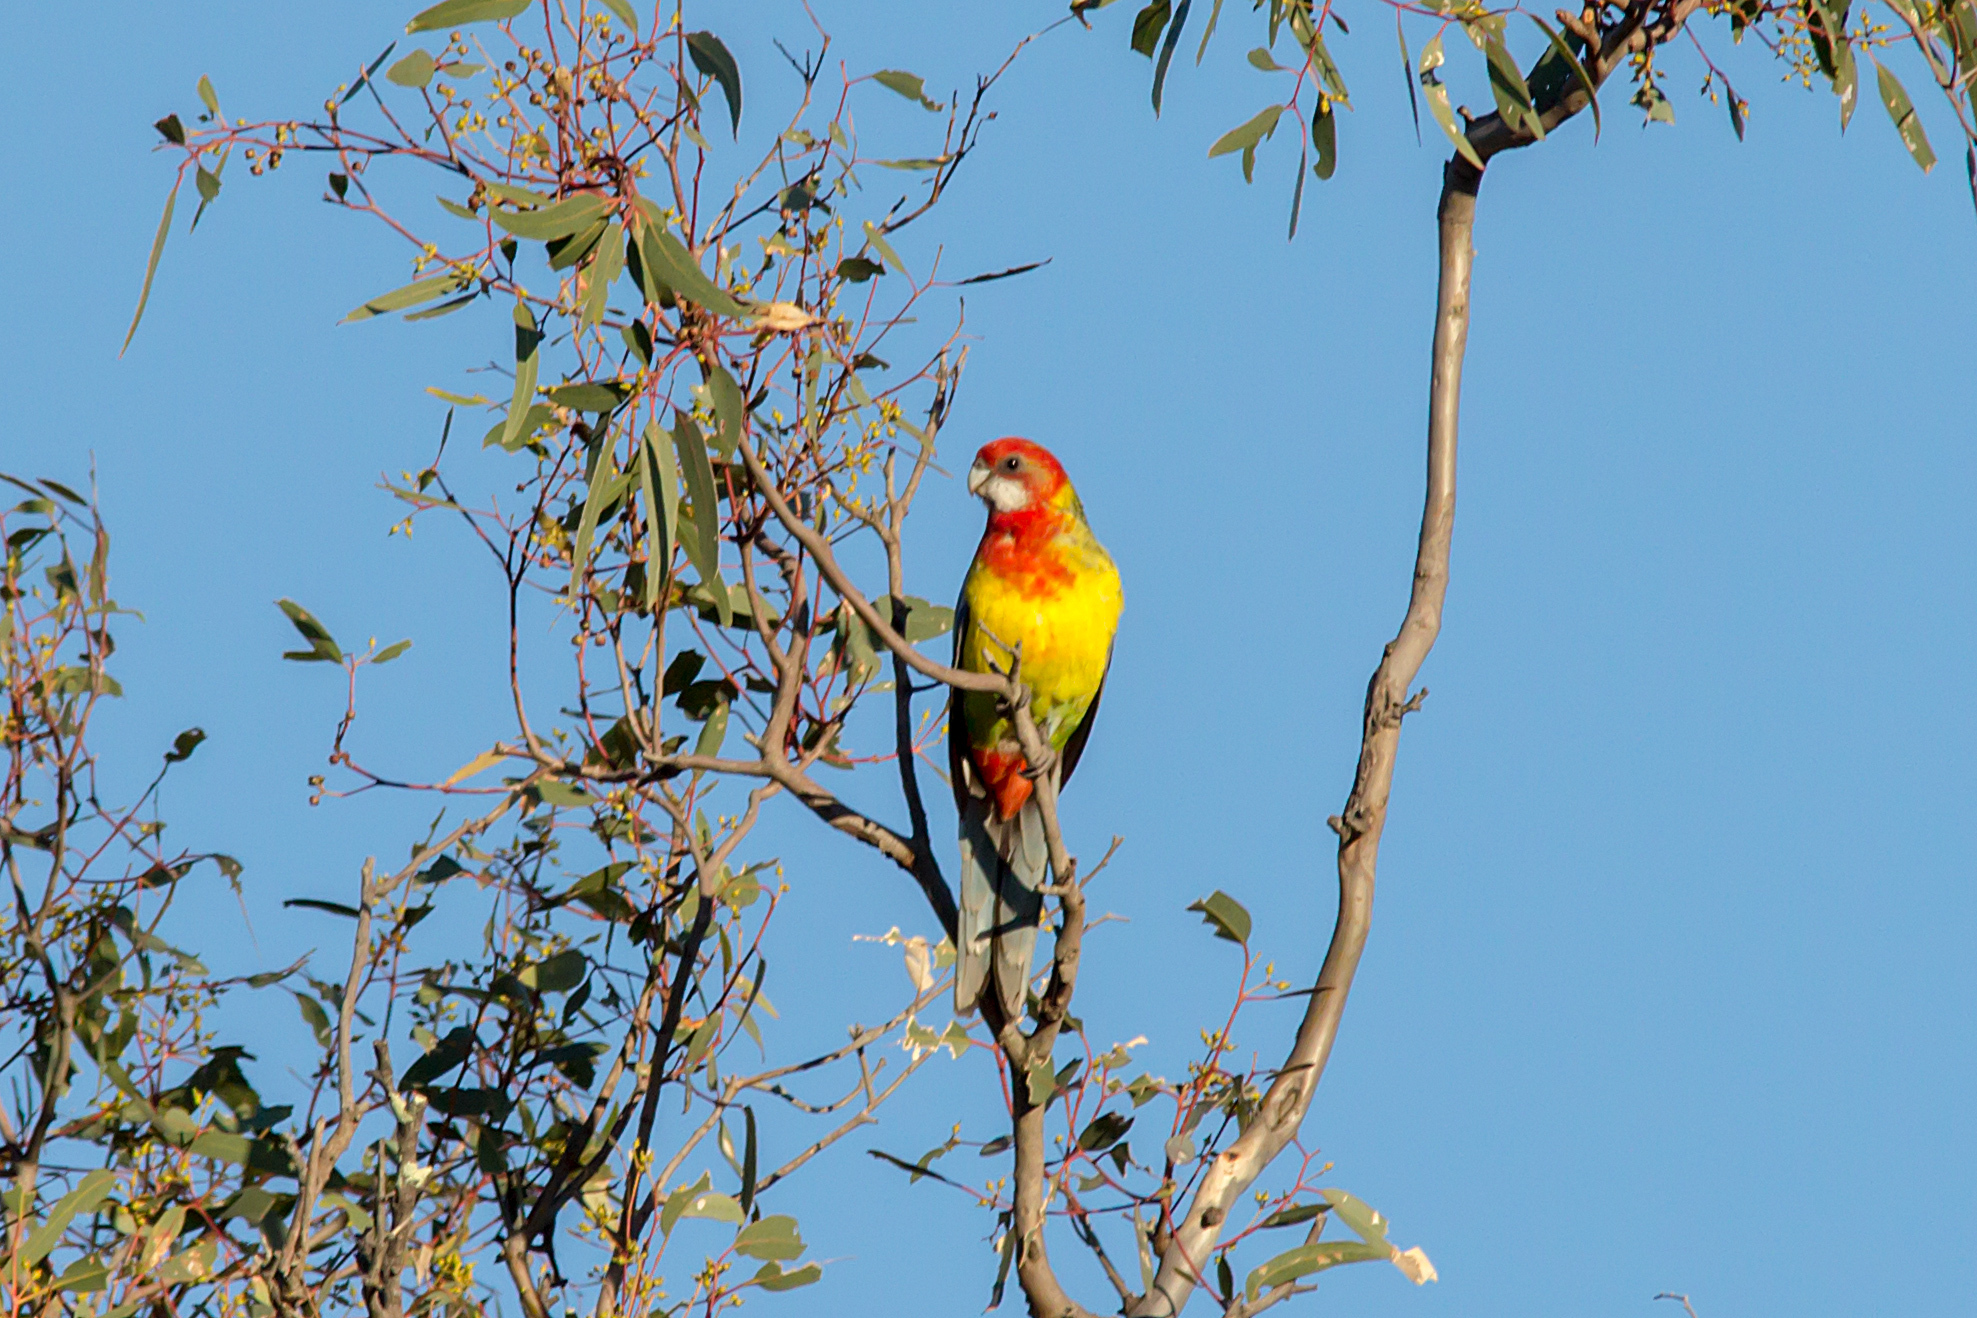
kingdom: Animalia
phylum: Chordata
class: Aves
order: Psittaciformes
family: Psittacidae
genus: Platycercus
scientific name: Platycercus eximius
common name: Eastern rosella
